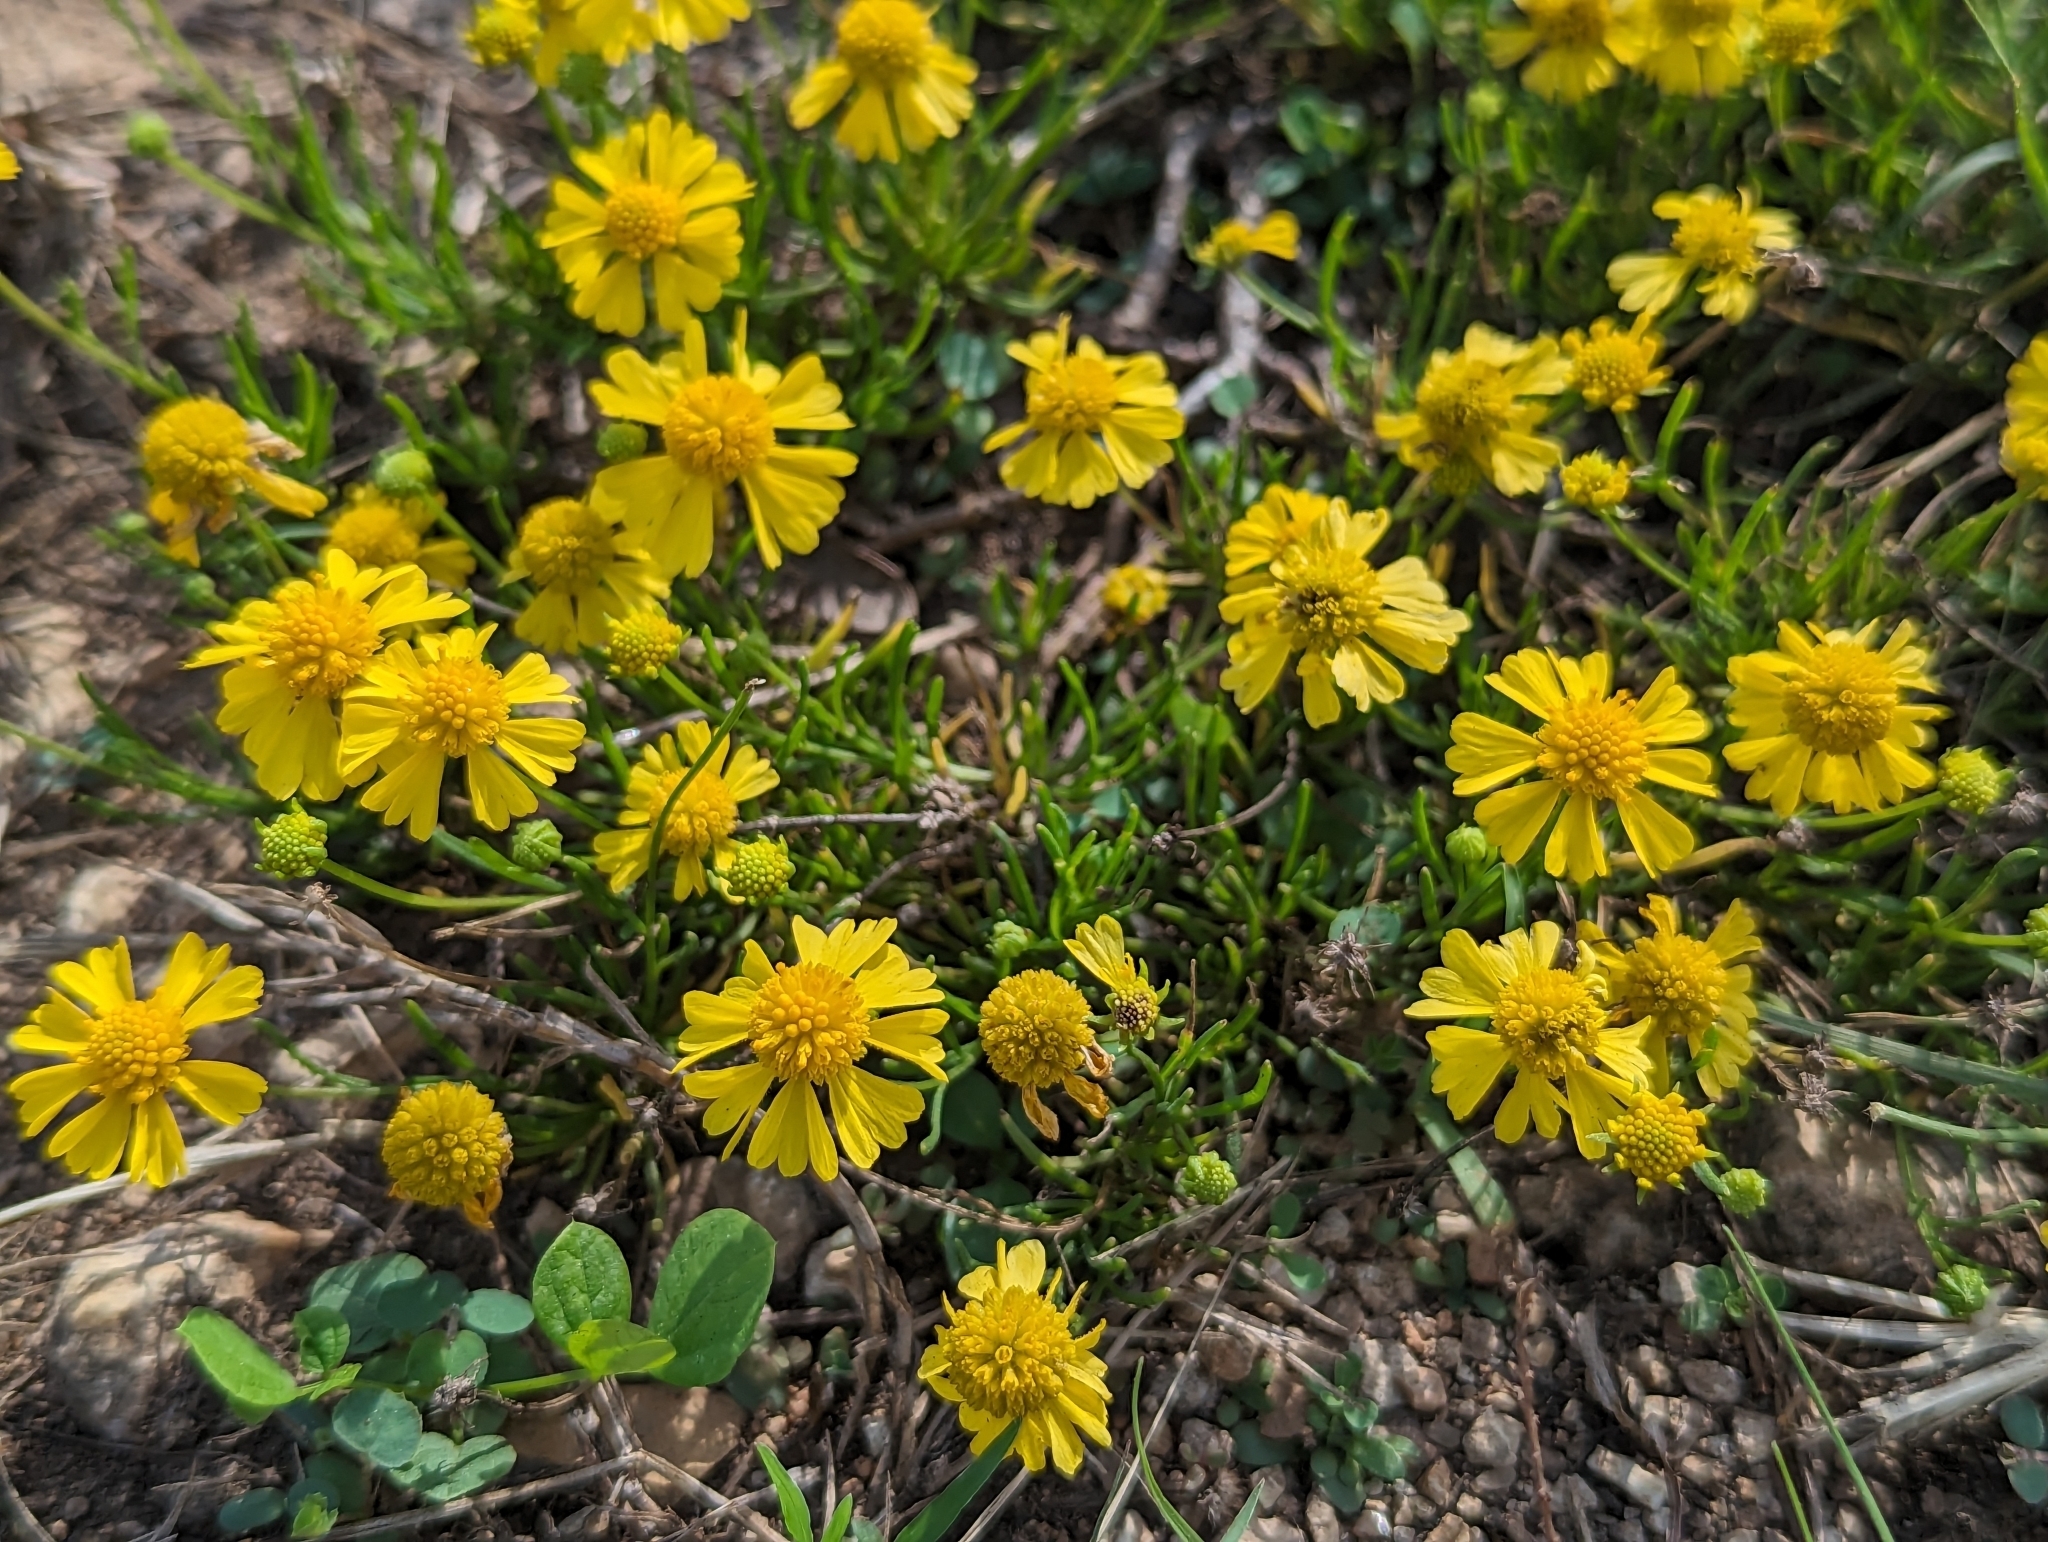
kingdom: Plantae
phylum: Tracheophyta
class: Magnoliopsida
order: Asterales
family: Asteraceae
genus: Helenium
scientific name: Helenium amarum
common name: Bitter sneezeweed
